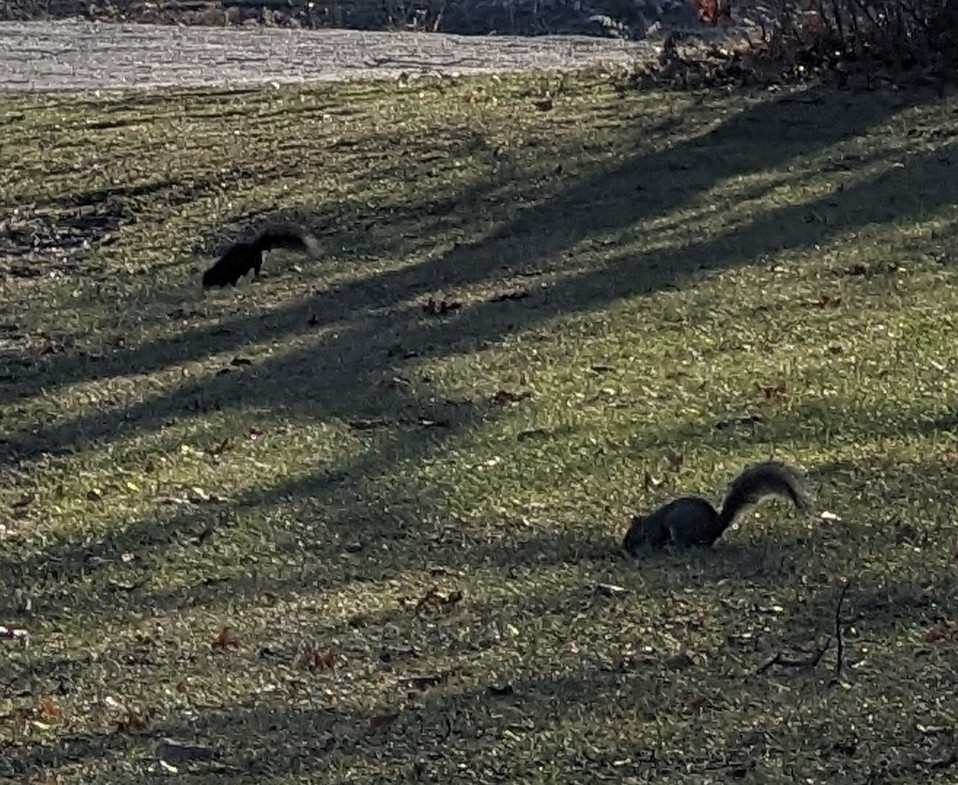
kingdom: Animalia
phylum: Chordata
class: Mammalia
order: Rodentia
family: Sciuridae
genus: Sciurus
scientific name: Sciurus carolinensis
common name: Eastern gray squirrel
